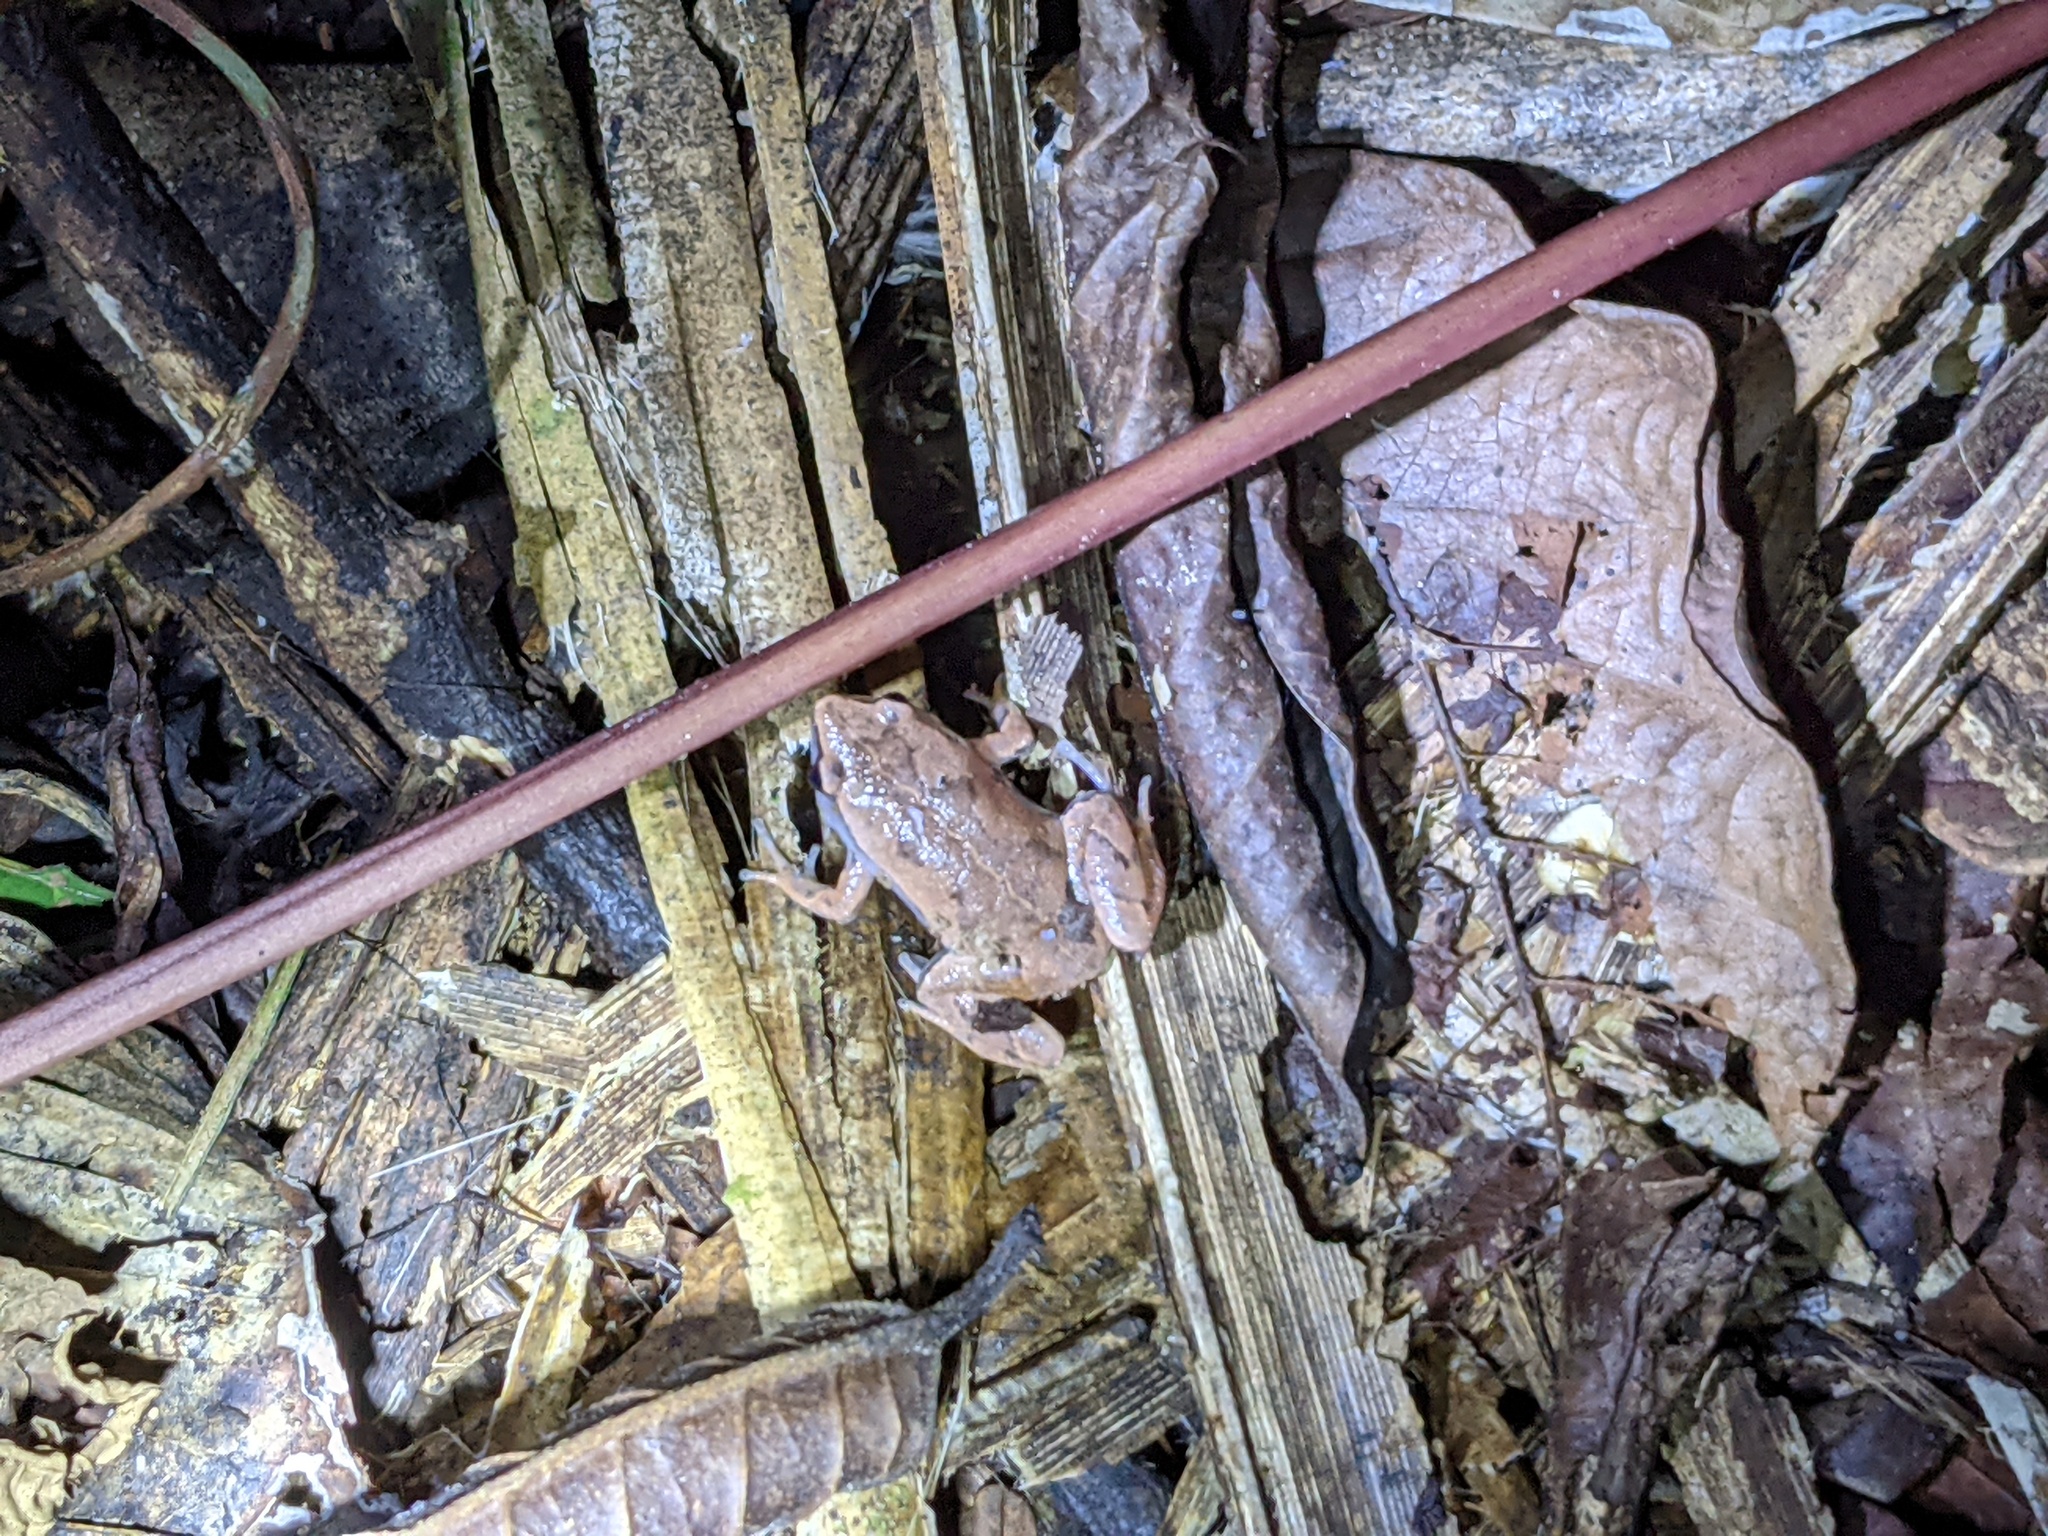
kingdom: Animalia
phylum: Chordata
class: Amphibia
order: Anura
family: Microhylidae
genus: Hamptophryne
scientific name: Hamptophryne boliviana
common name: Bolivian bleating frog
